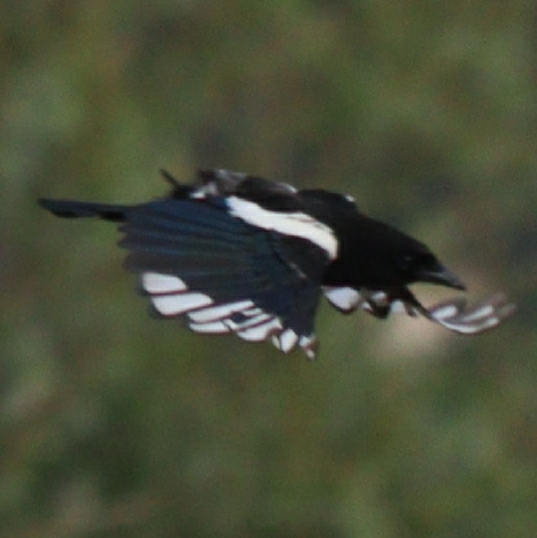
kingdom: Animalia
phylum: Chordata
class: Aves
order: Passeriformes
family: Corvidae
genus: Pica
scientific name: Pica pica
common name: Eurasian magpie
